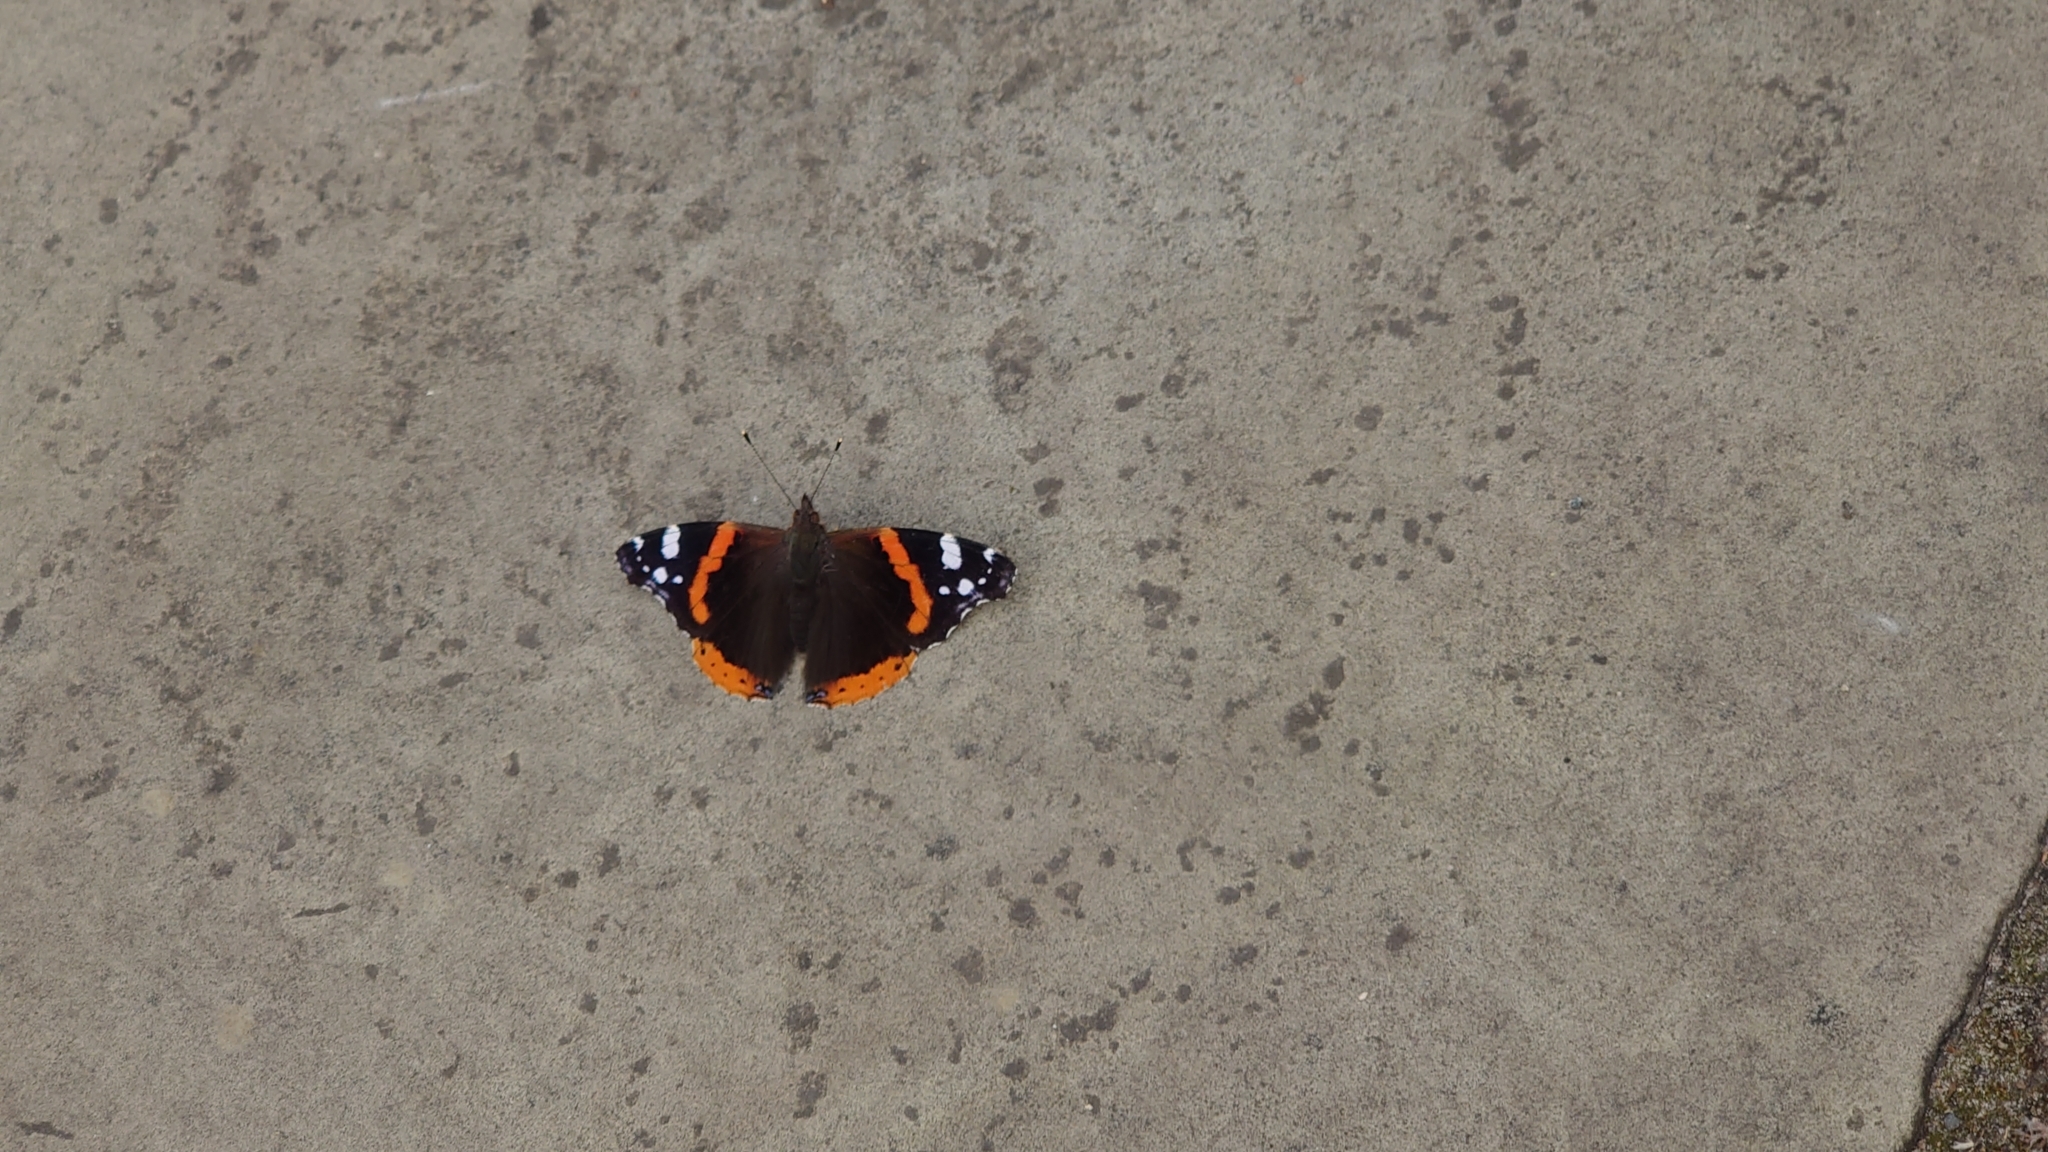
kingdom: Animalia
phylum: Arthropoda
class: Insecta
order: Lepidoptera
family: Nymphalidae
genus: Vanessa
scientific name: Vanessa atalanta
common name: Red admiral
